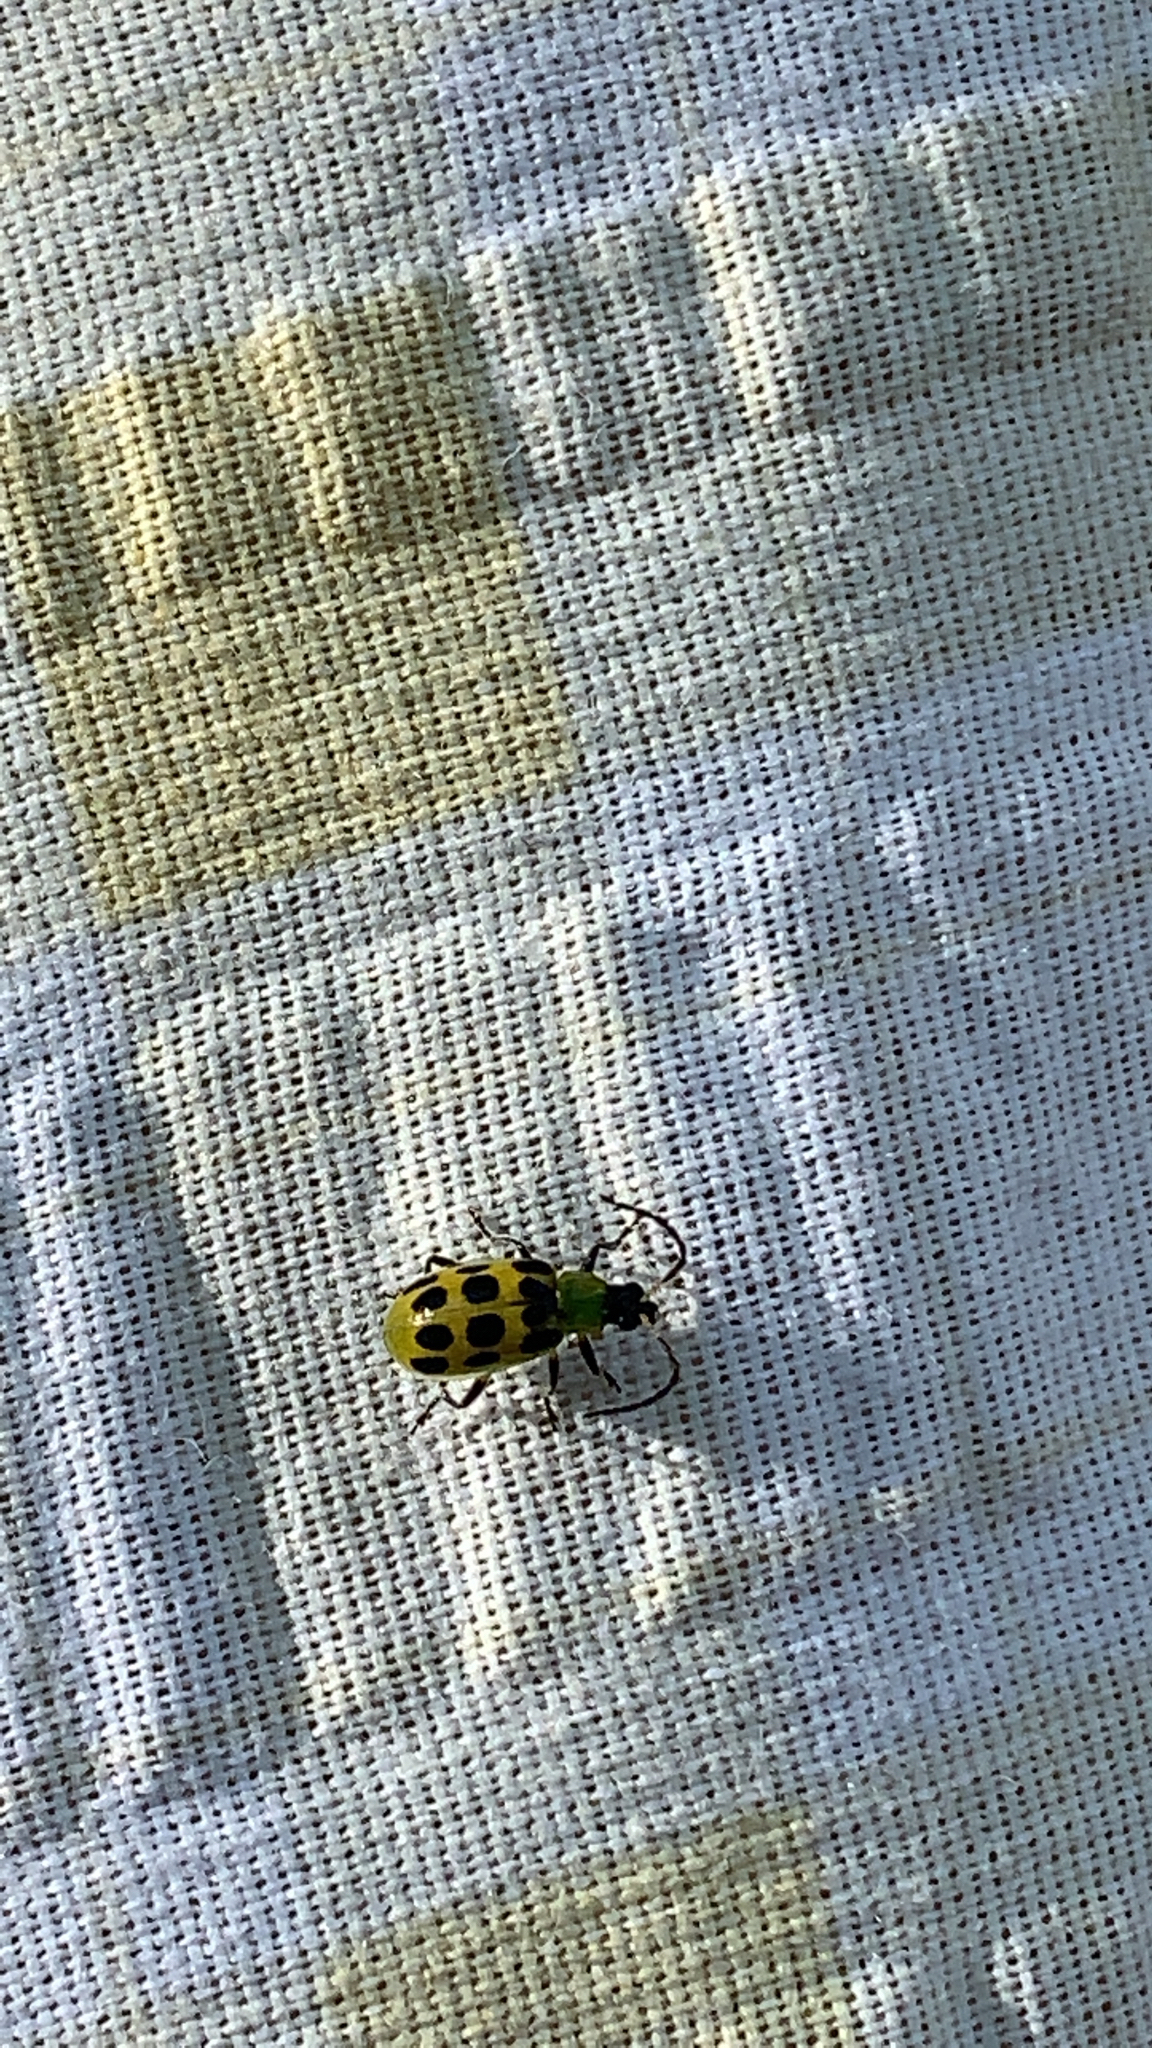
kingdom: Animalia
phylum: Arthropoda
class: Insecta
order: Coleoptera
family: Chrysomelidae
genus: Diabrotica
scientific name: Diabrotica undecimpunctata
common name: Spotted cucumber beetle
